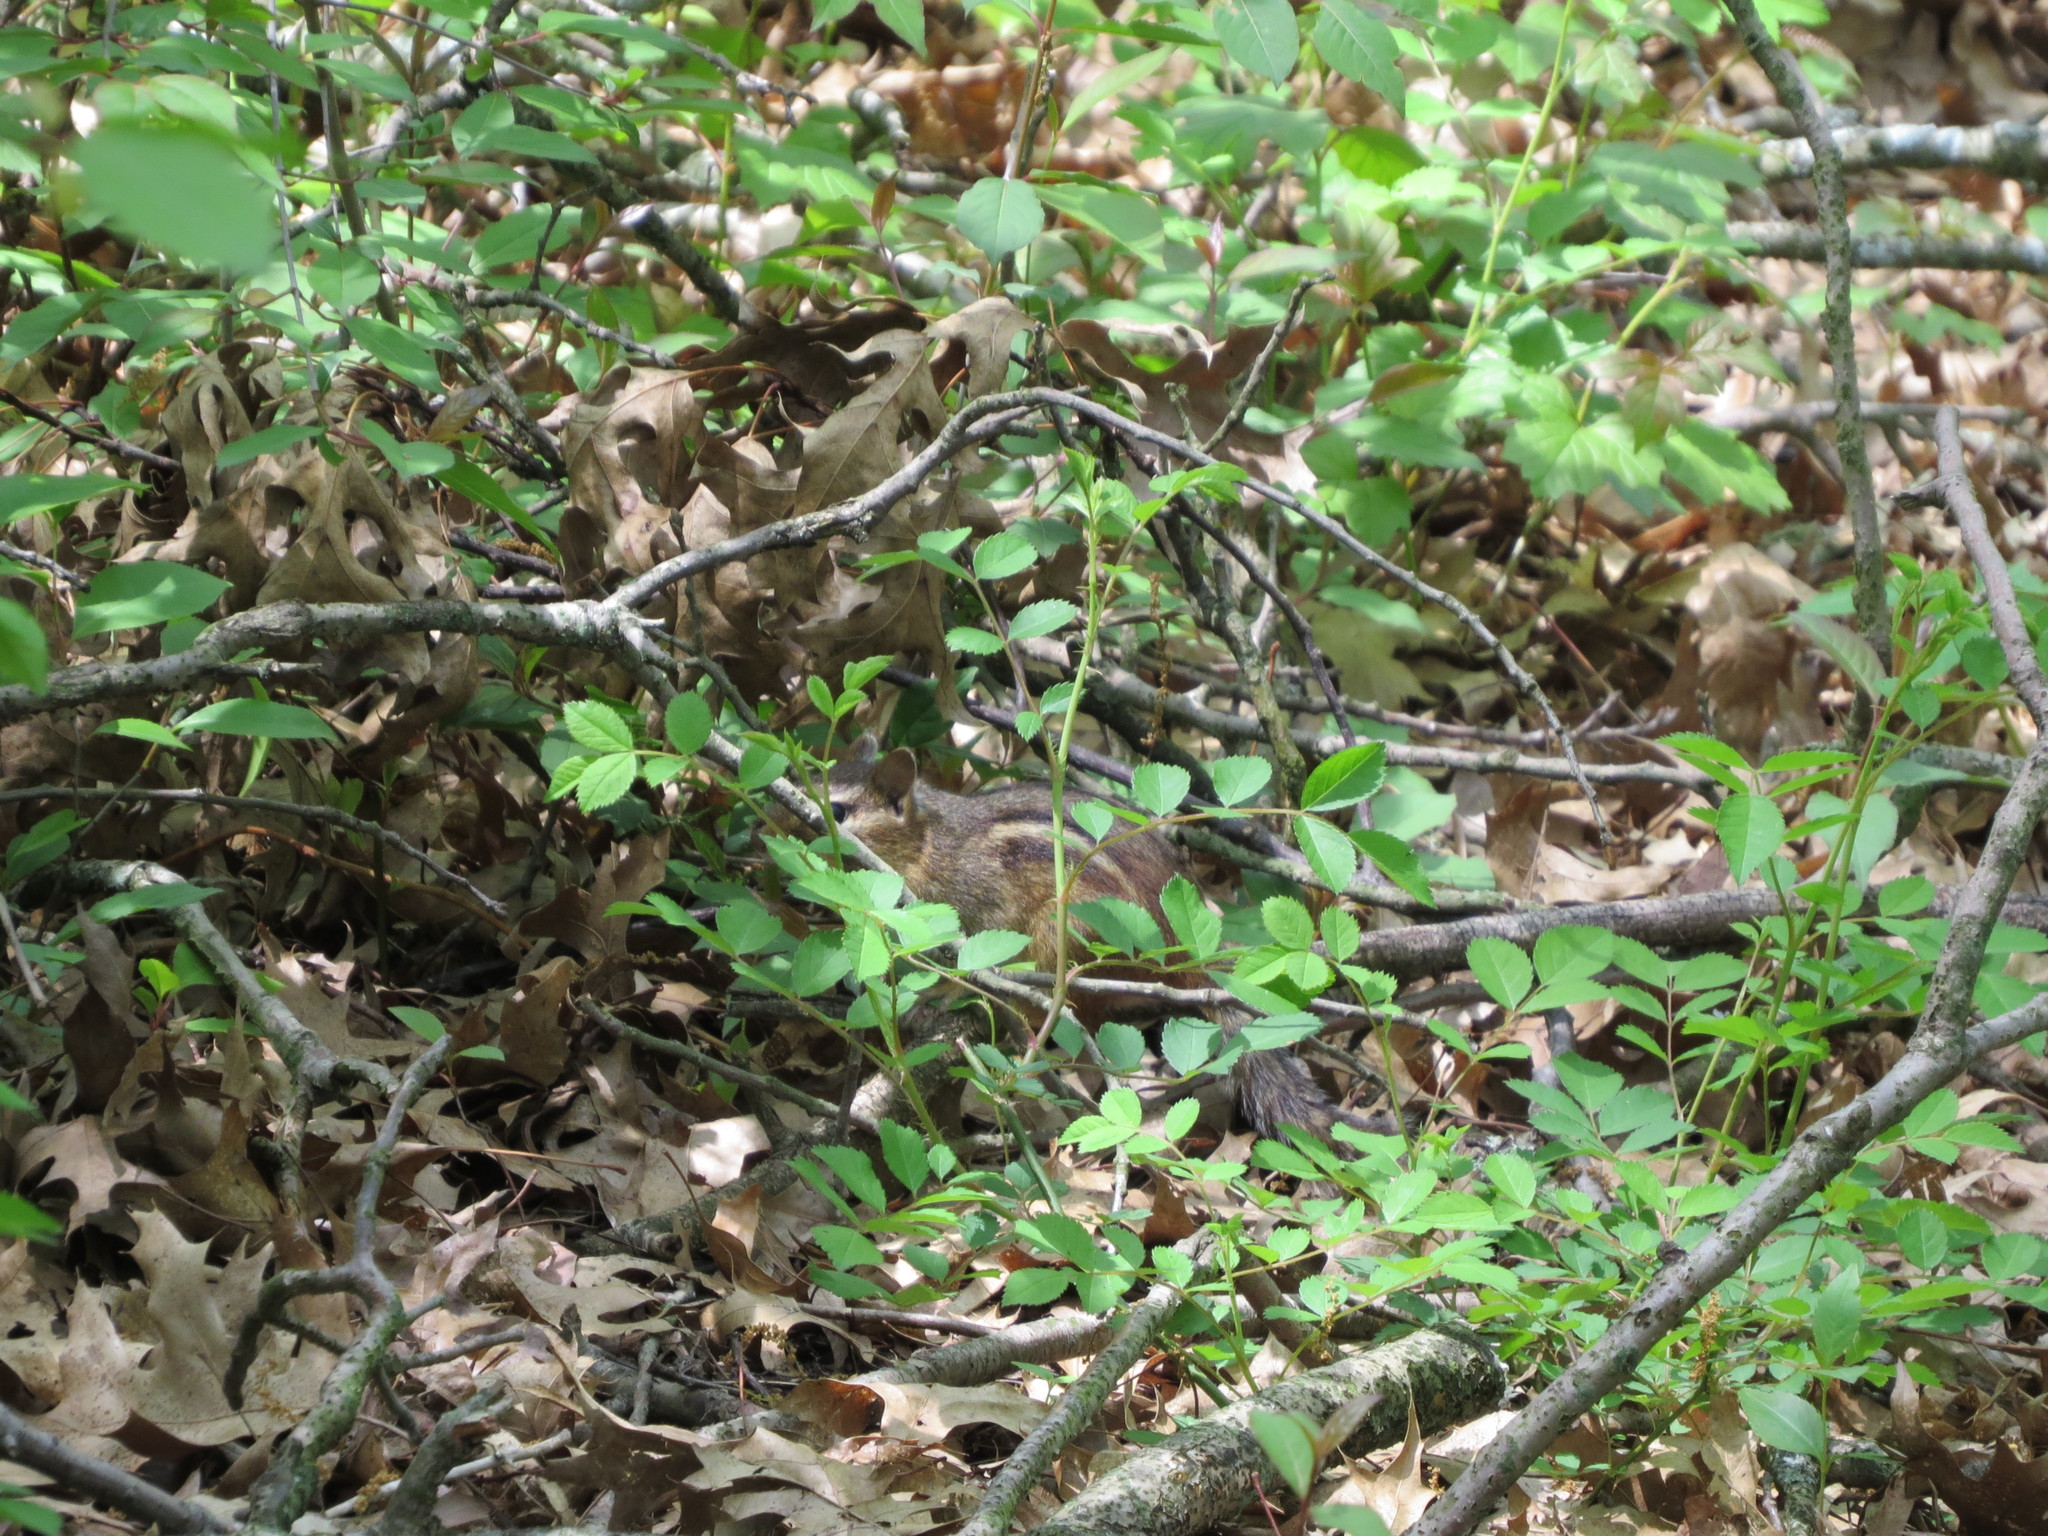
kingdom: Animalia
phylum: Chordata
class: Mammalia
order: Rodentia
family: Sciuridae
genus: Tamias
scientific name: Tamias striatus
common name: Eastern chipmunk
